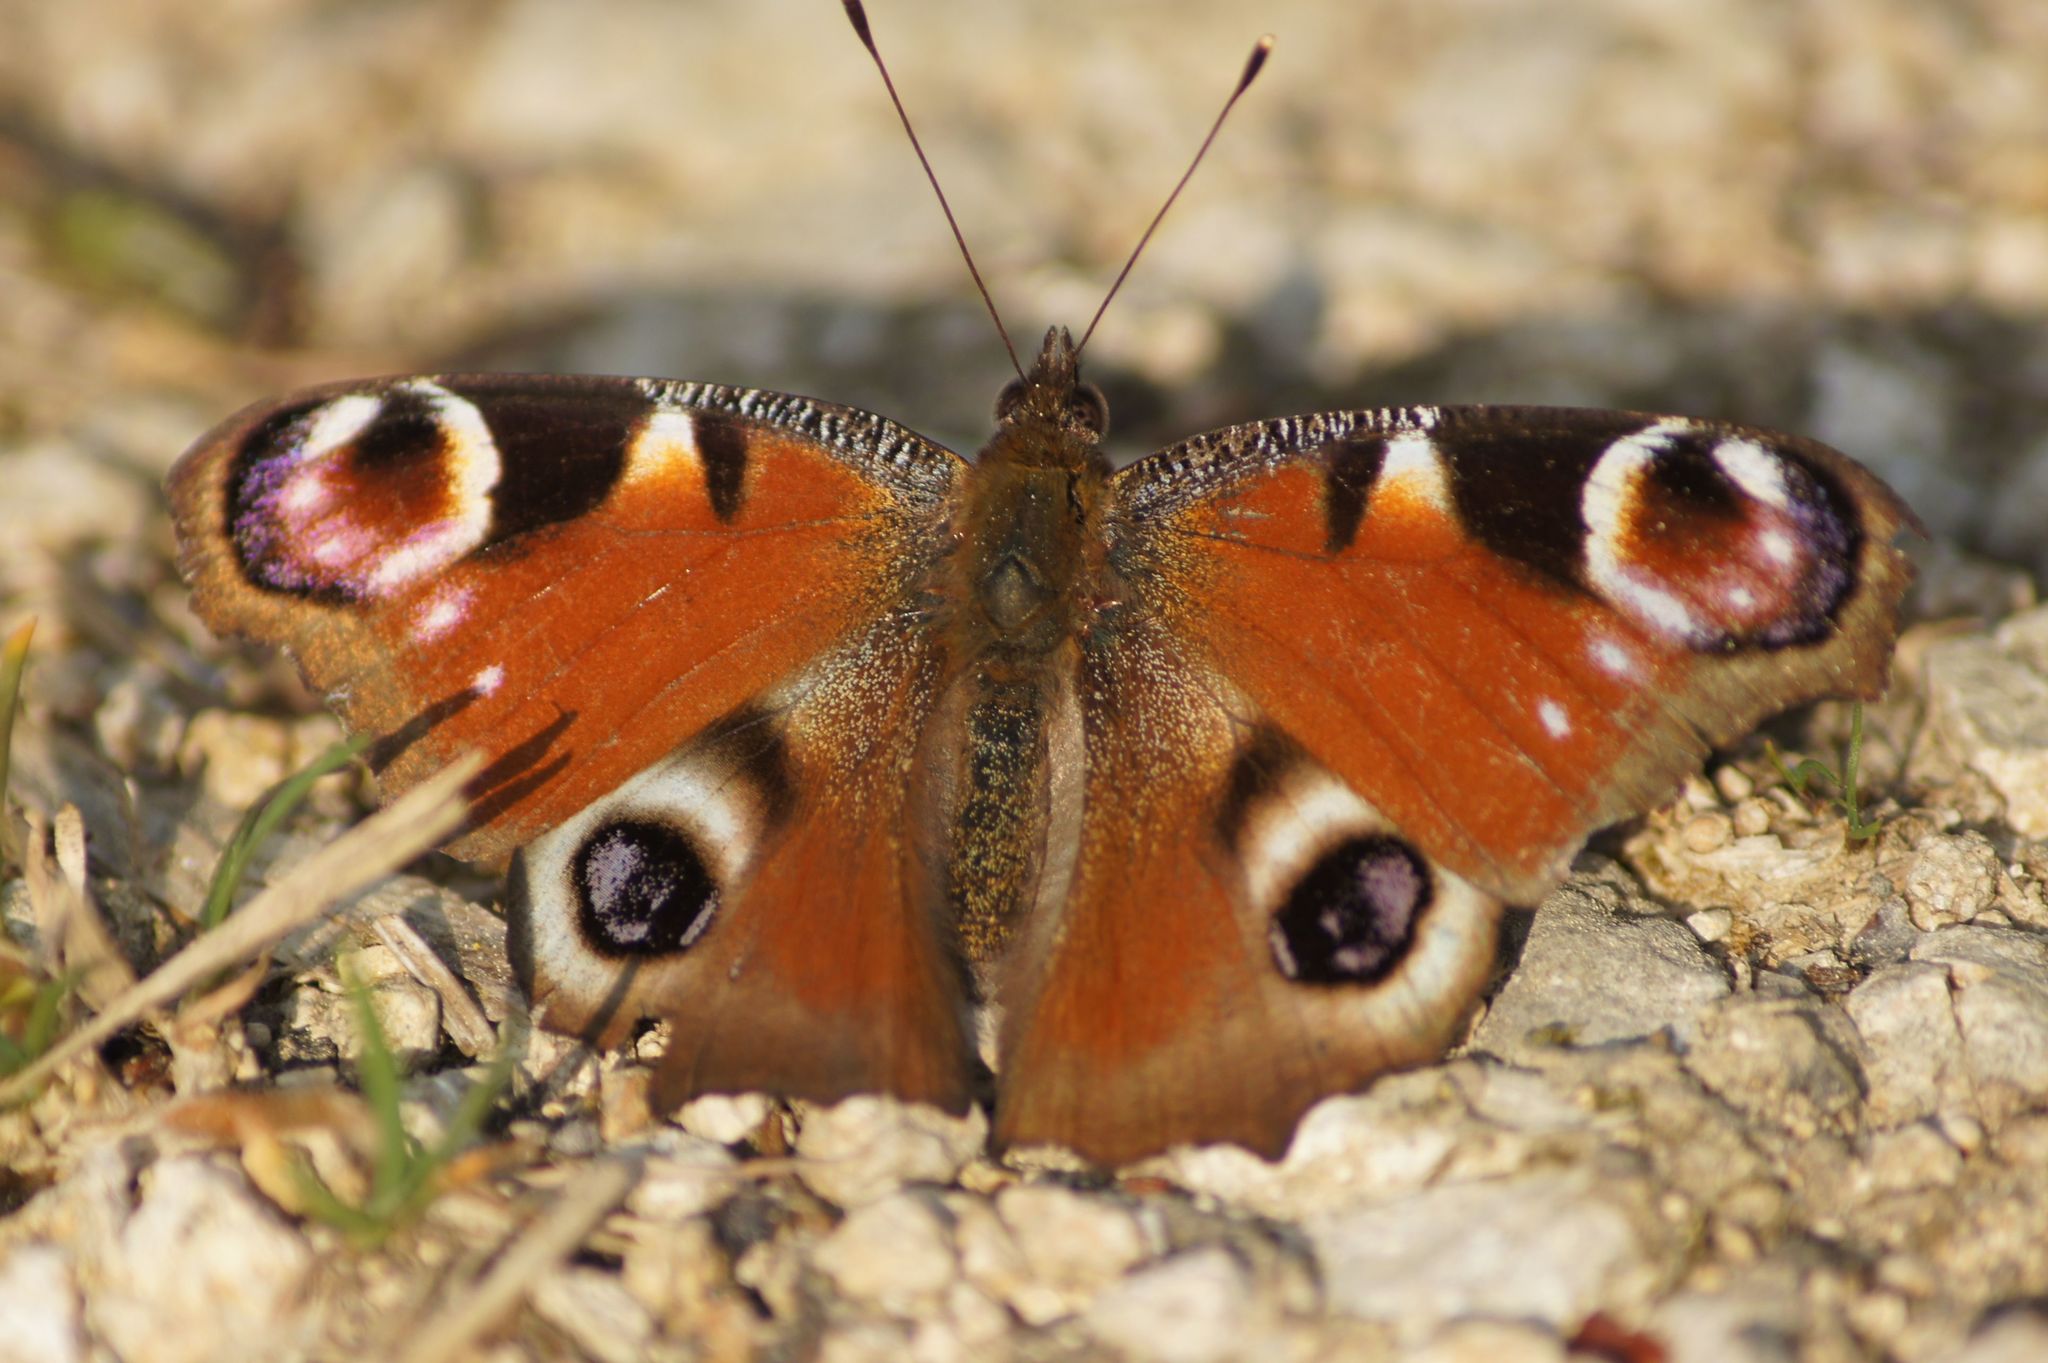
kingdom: Animalia
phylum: Arthropoda
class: Insecta
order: Lepidoptera
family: Nymphalidae
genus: Aglais
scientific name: Aglais io
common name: Peacock
